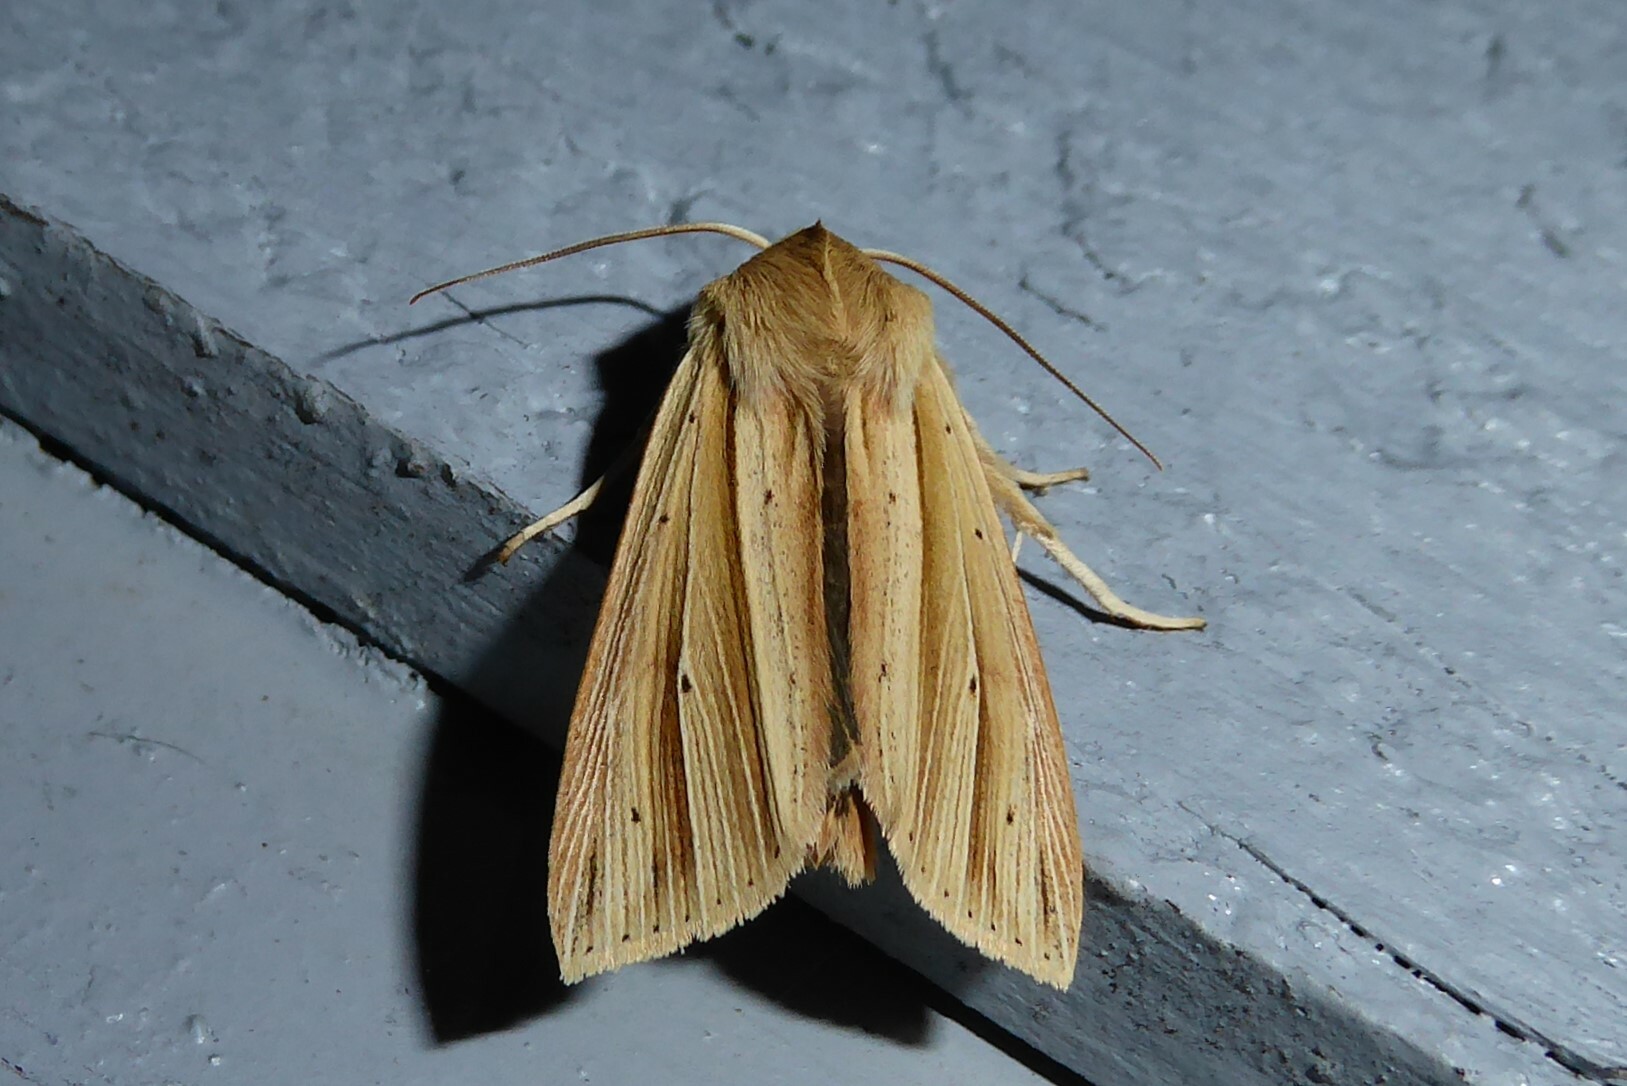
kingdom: Animalia
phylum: Arthropoda
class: Insecta
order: Lepidoptera
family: Noctuidae
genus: Ichneutica
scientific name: Ichneutica sulcana
